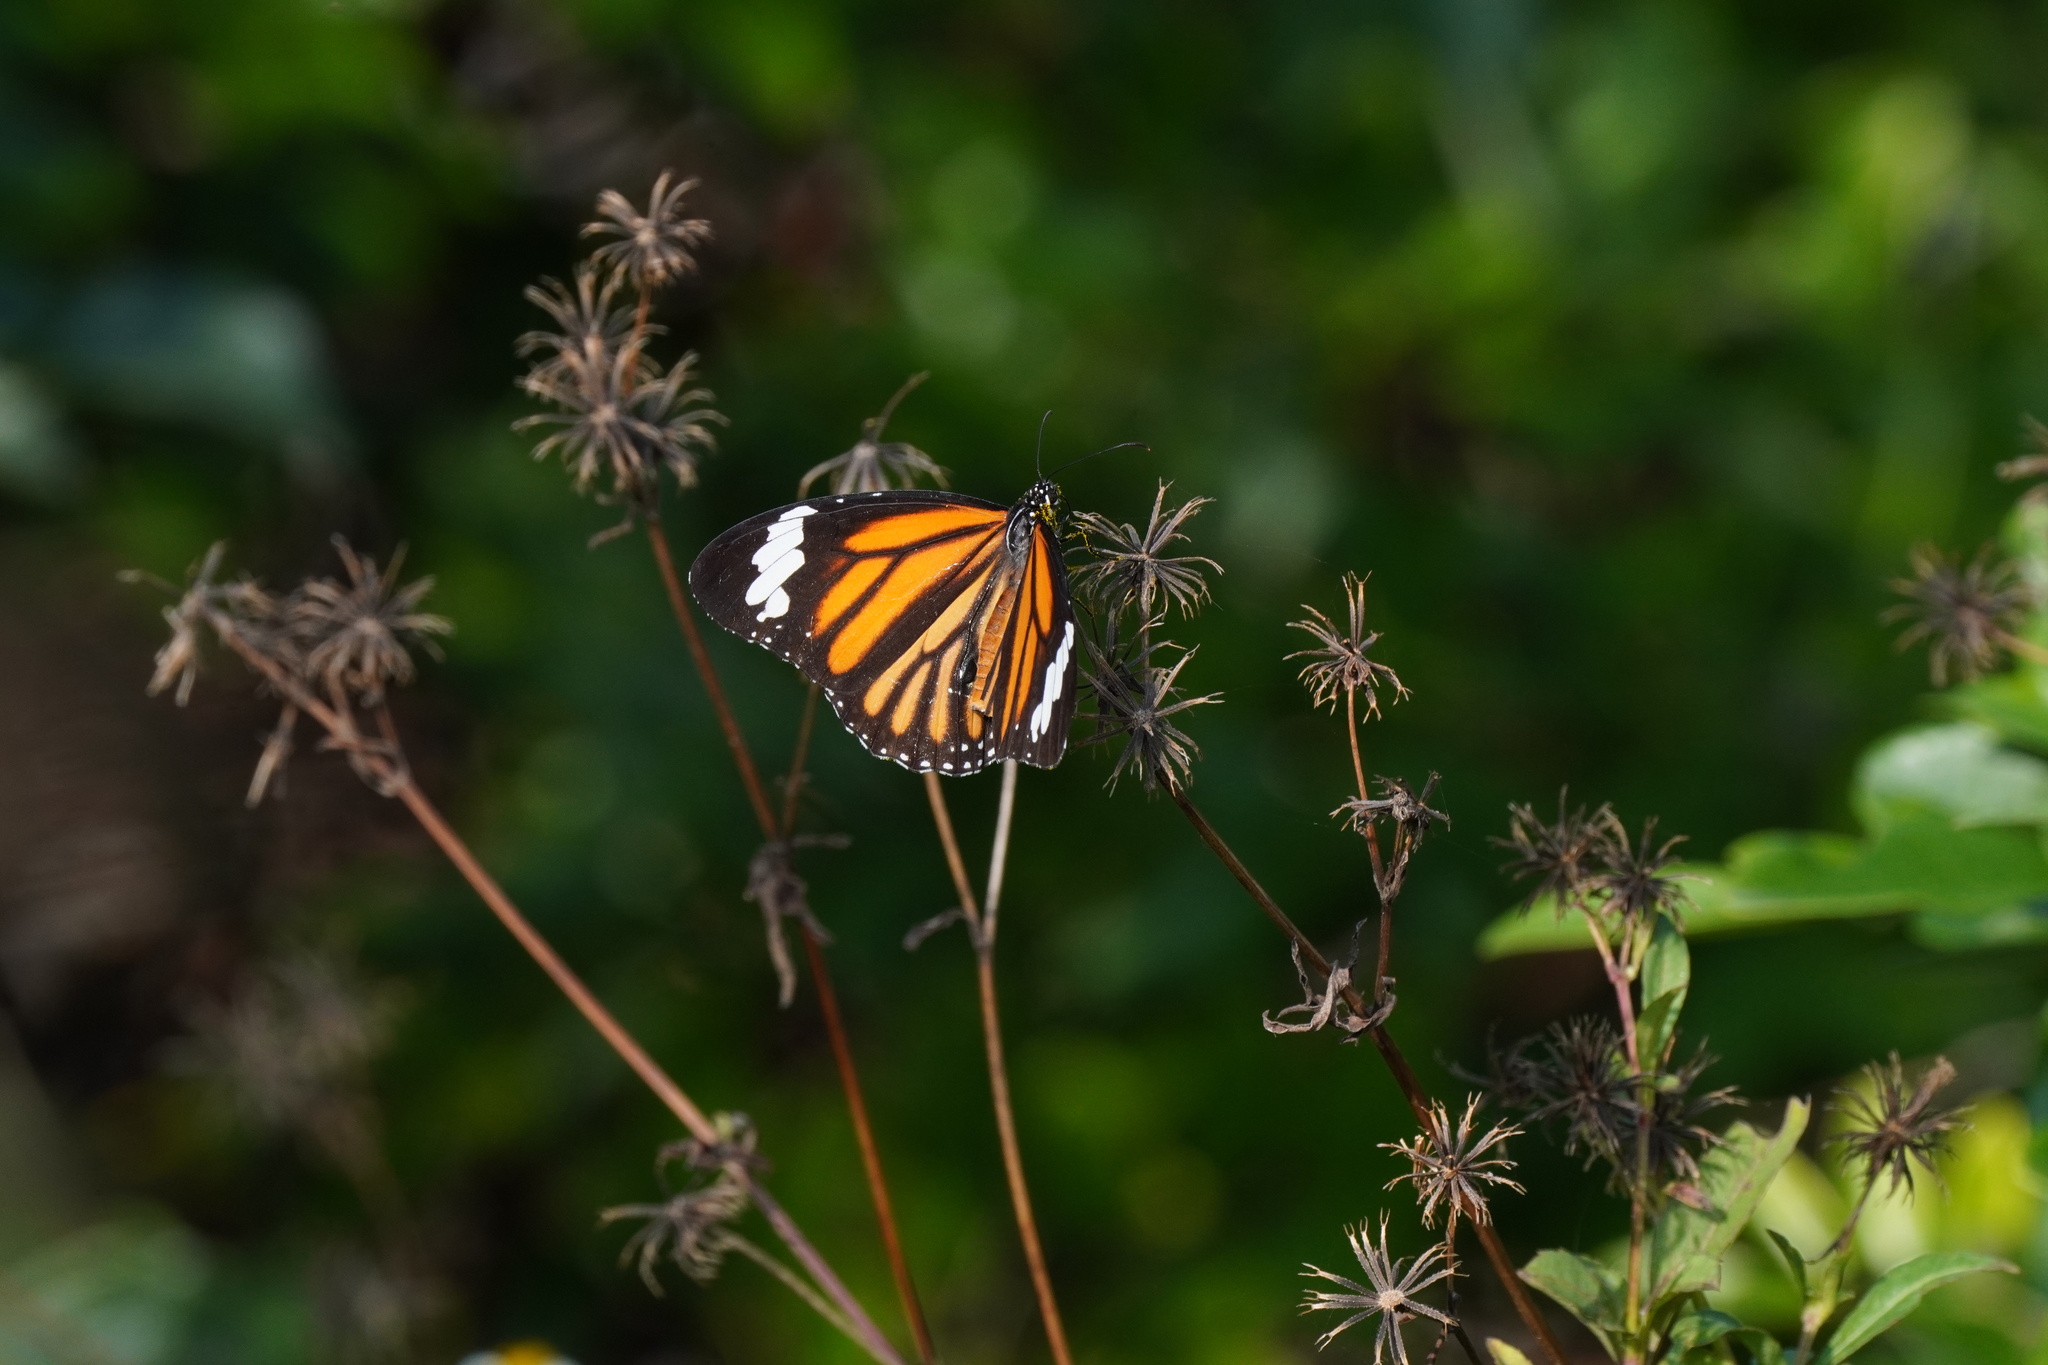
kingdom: Animalia
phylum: Arthropoda
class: Insecta
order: Lepidoptera
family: Nymphalidae
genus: Danaus
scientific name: Danaus genutia
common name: Common tiger butterfly
